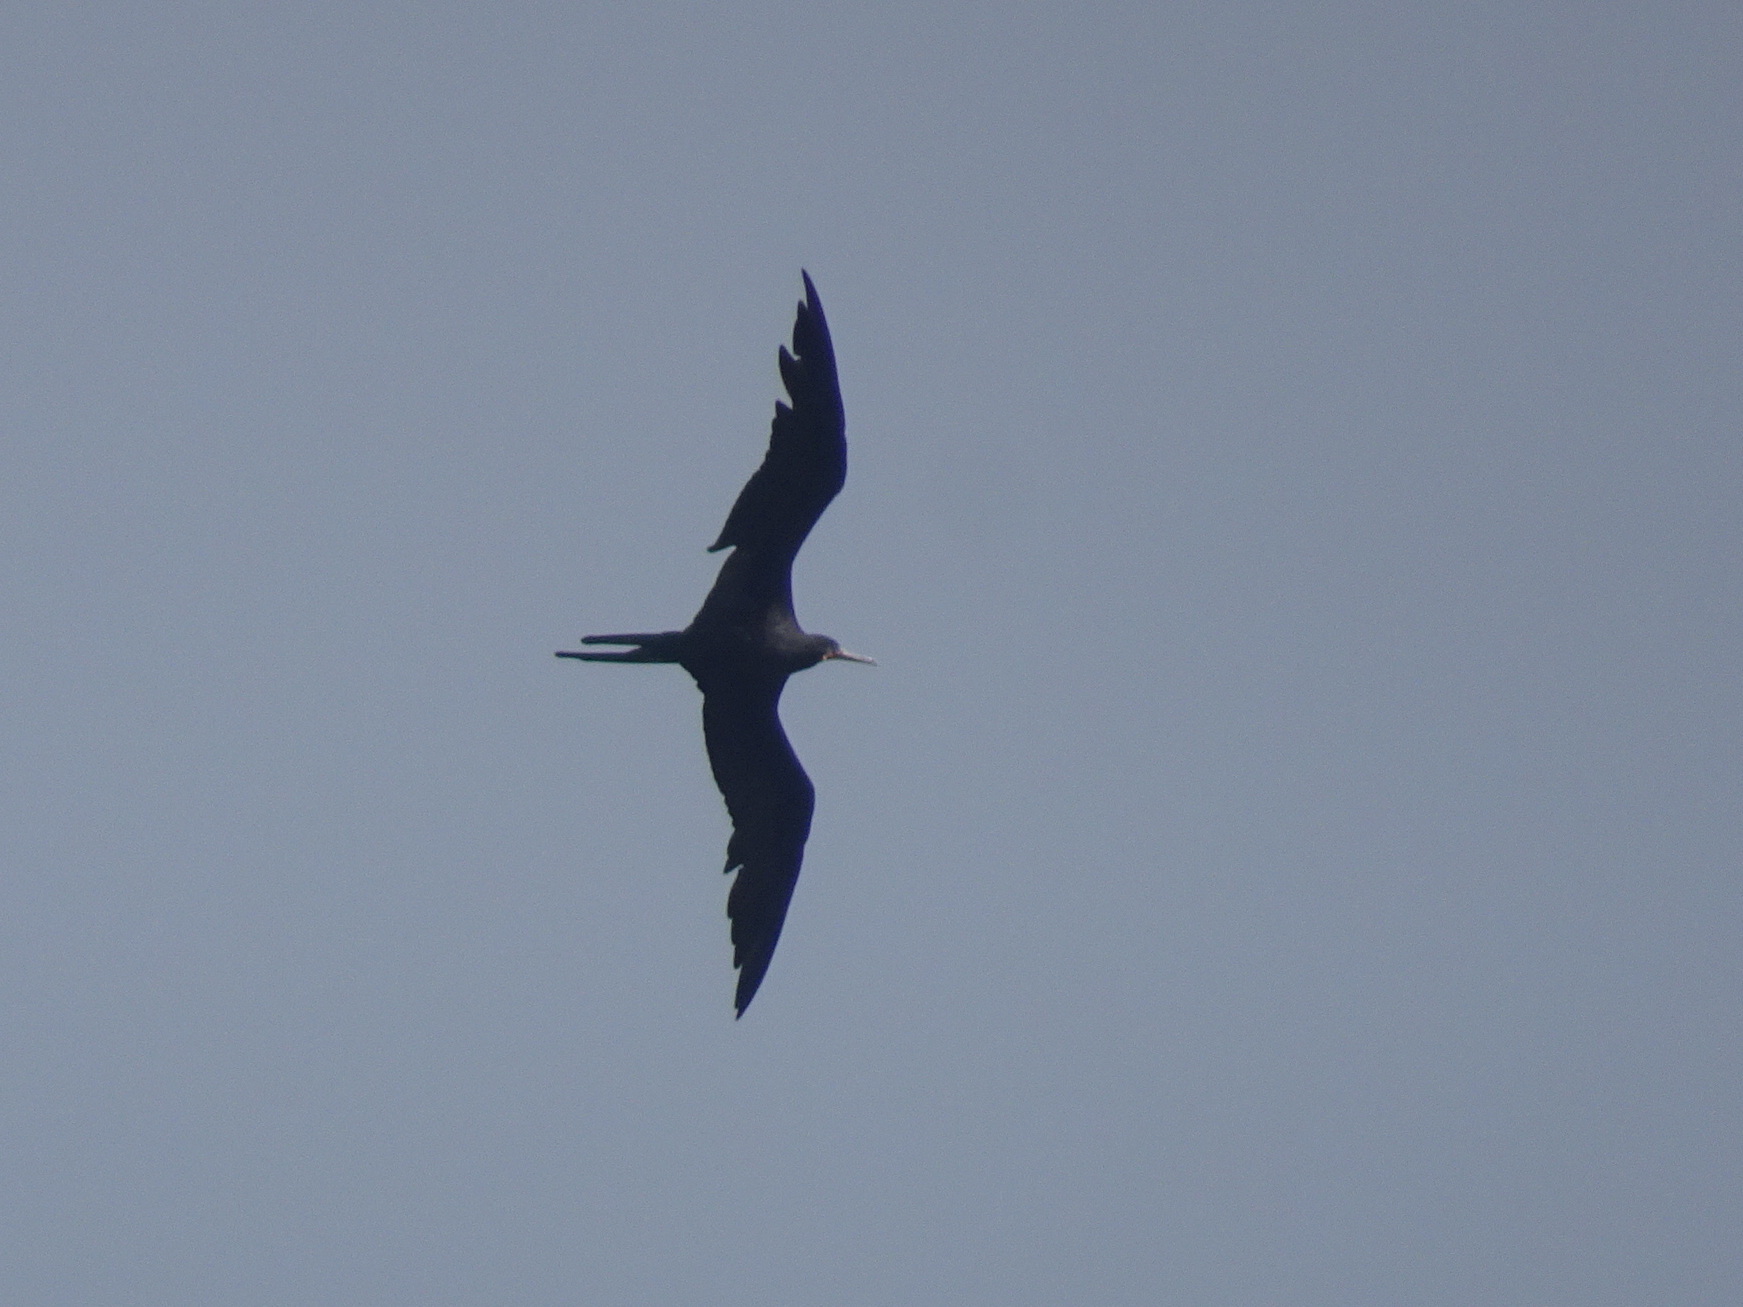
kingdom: Animalia
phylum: Chordata
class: Aves
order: Suliformes
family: Fregatidae
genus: Fregata
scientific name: Fregata magnificens
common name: Magnificent frigatebird
